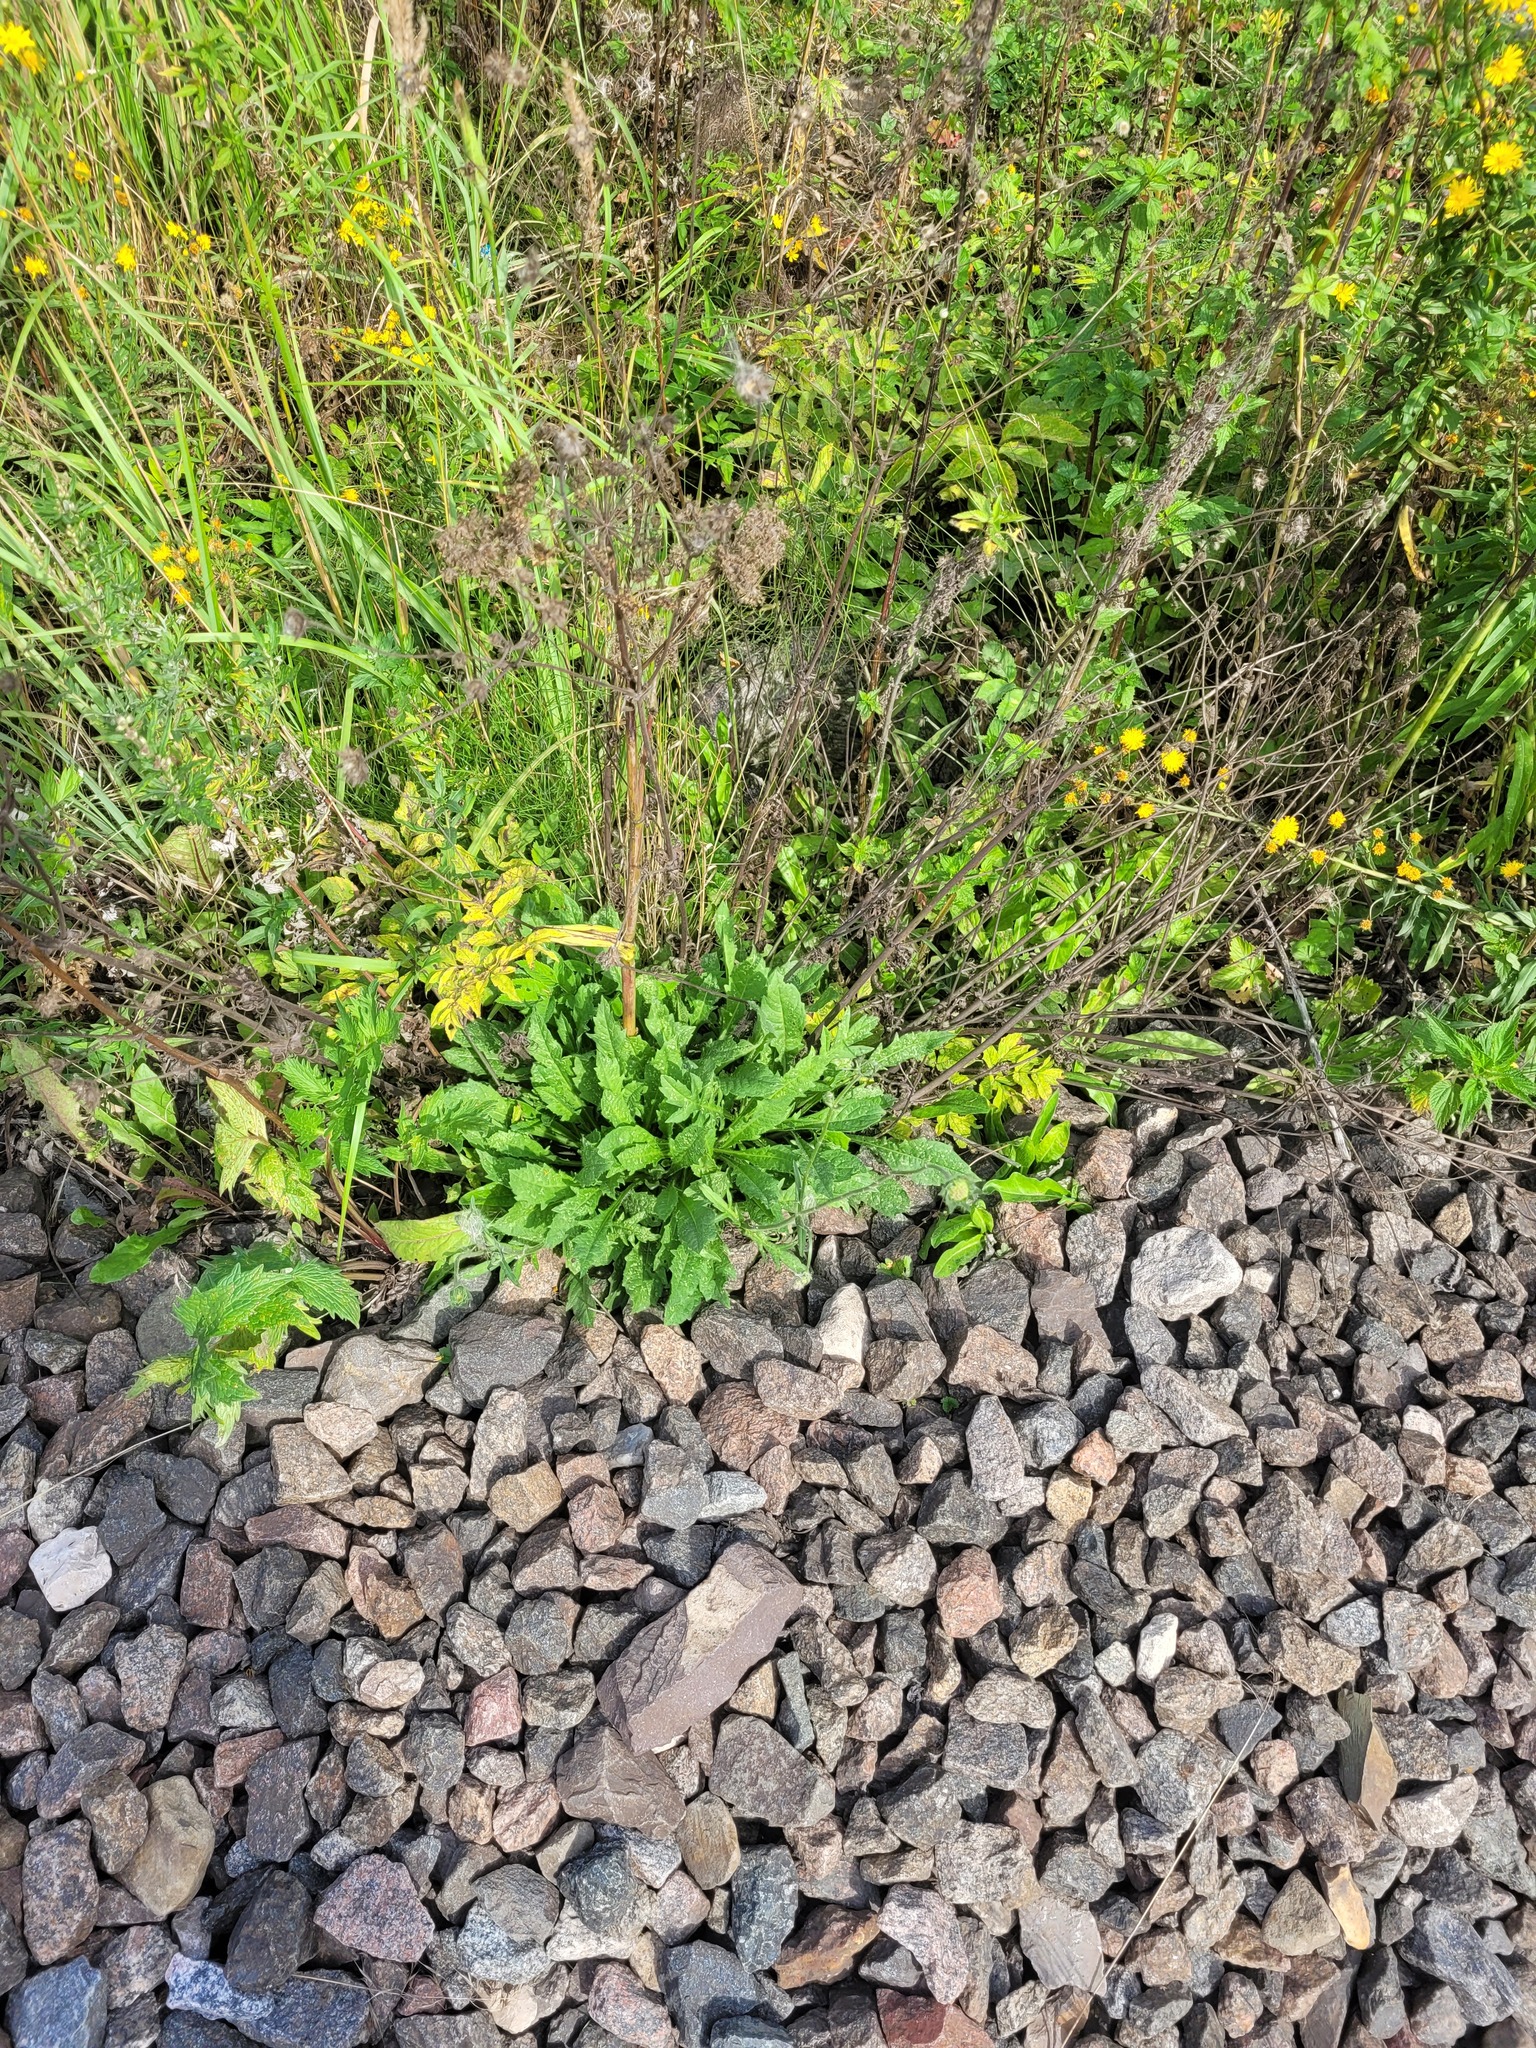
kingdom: Plantae
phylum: Tracheophyta
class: Magnoliopsida
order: Dipsacales
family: Caprifoliaceae
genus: Knautia
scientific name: Knautia arvensis
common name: Field scabiosa
